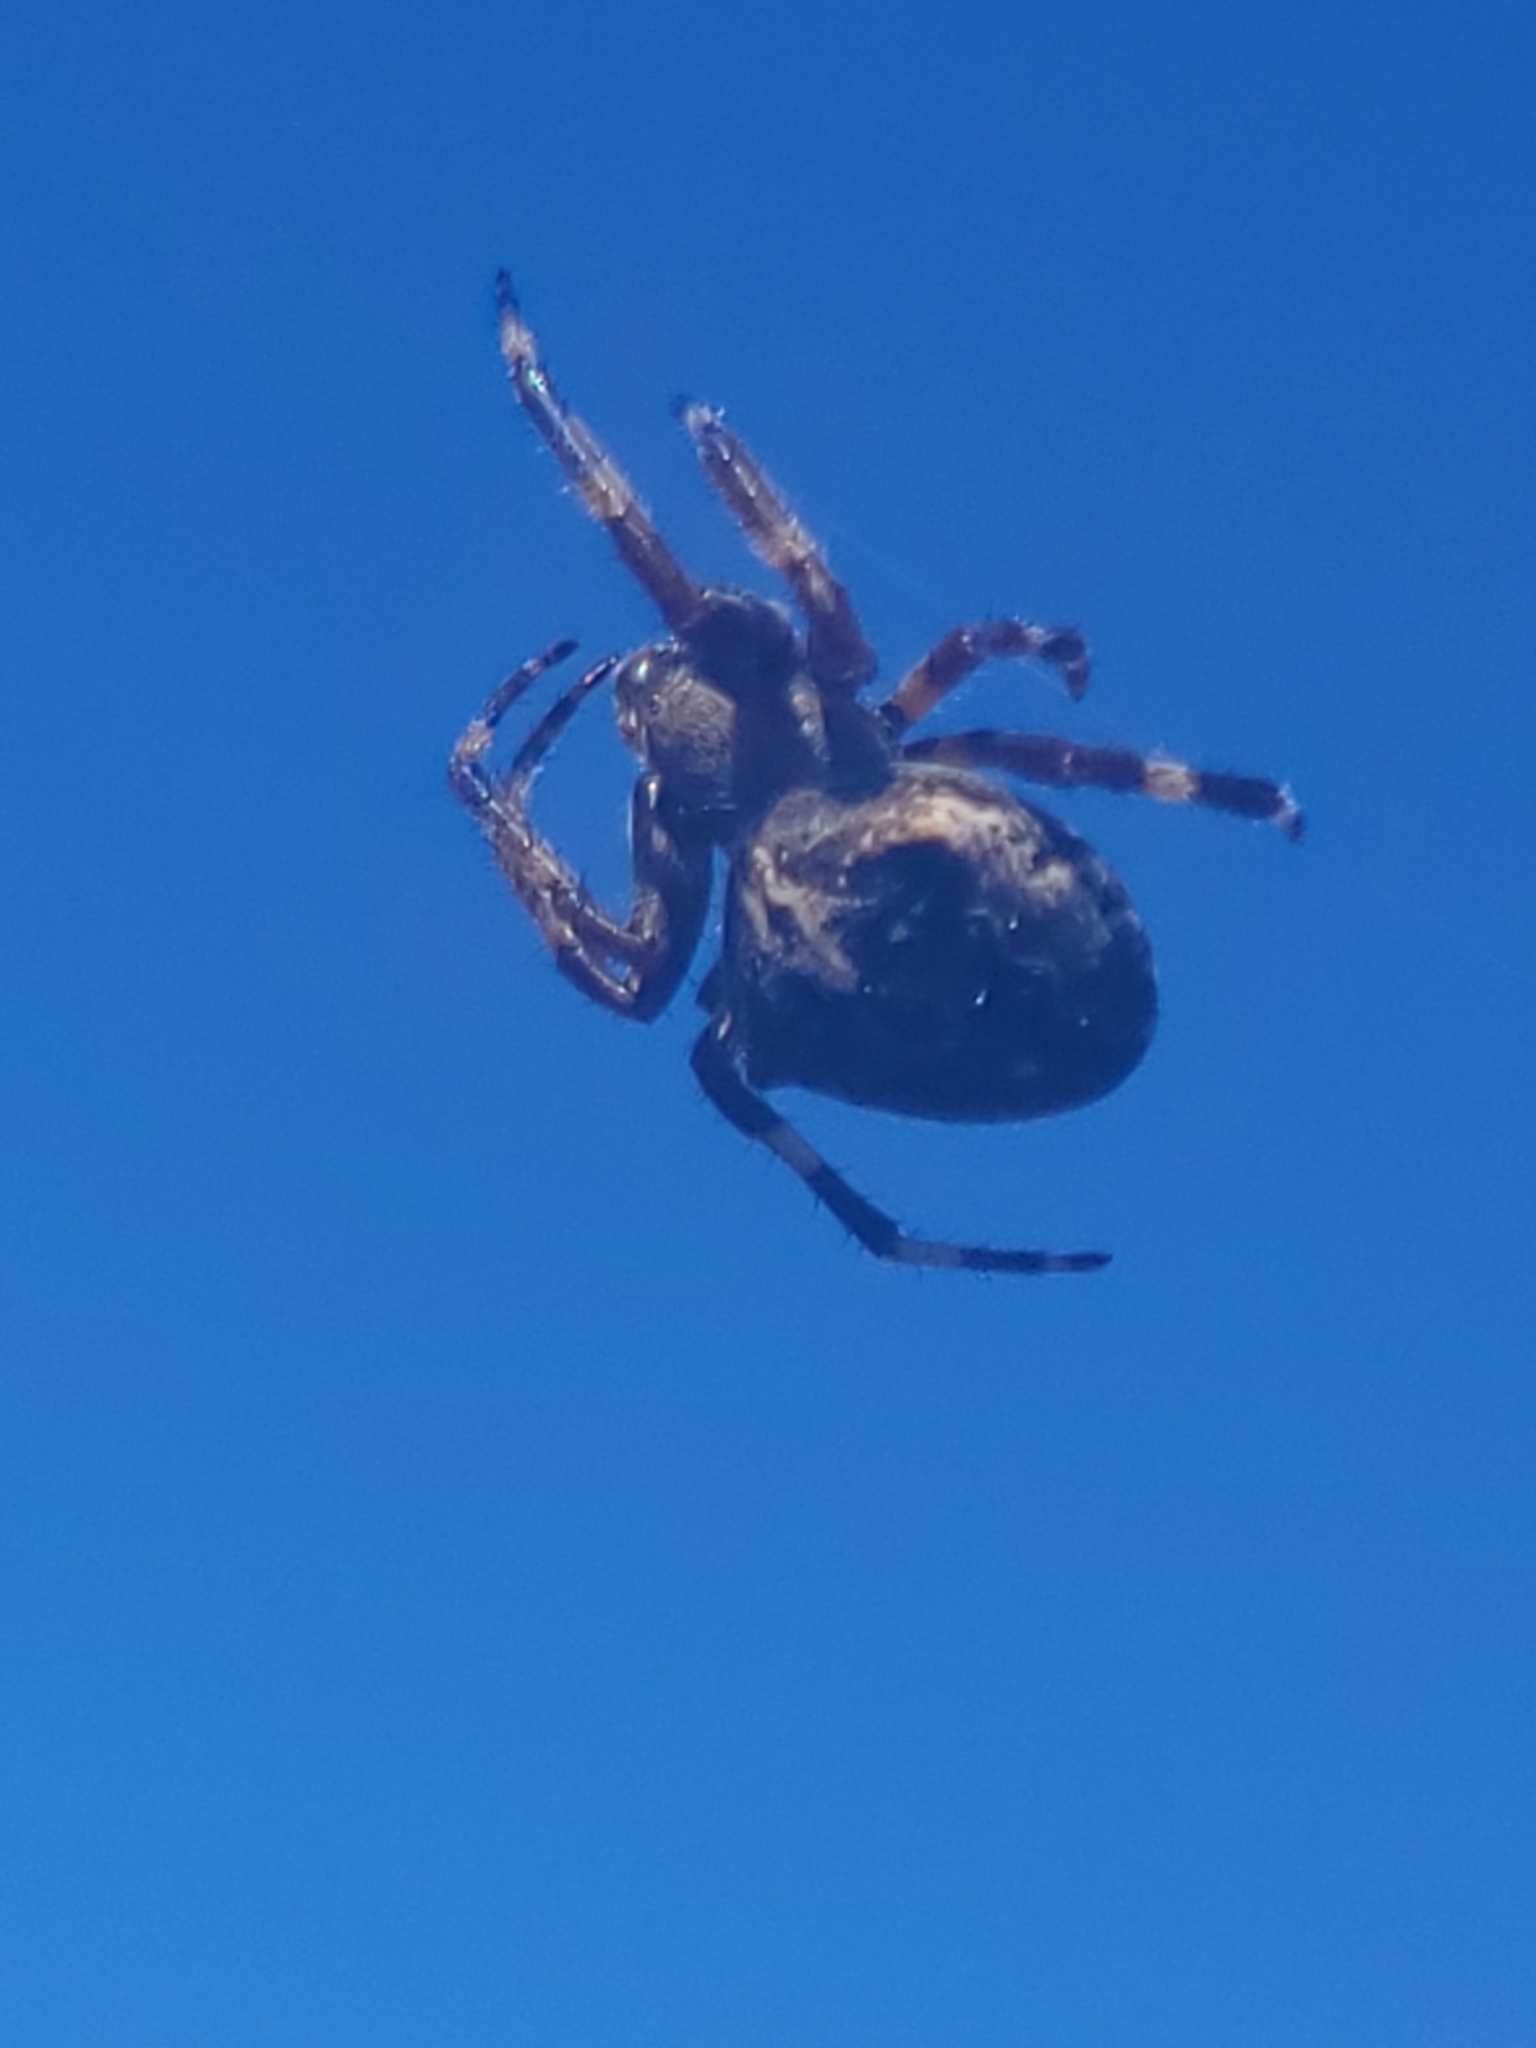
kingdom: Animalia
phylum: Arthropoda
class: Arachnida
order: Araneae
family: Araneidae
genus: Araneus
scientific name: Araneus
